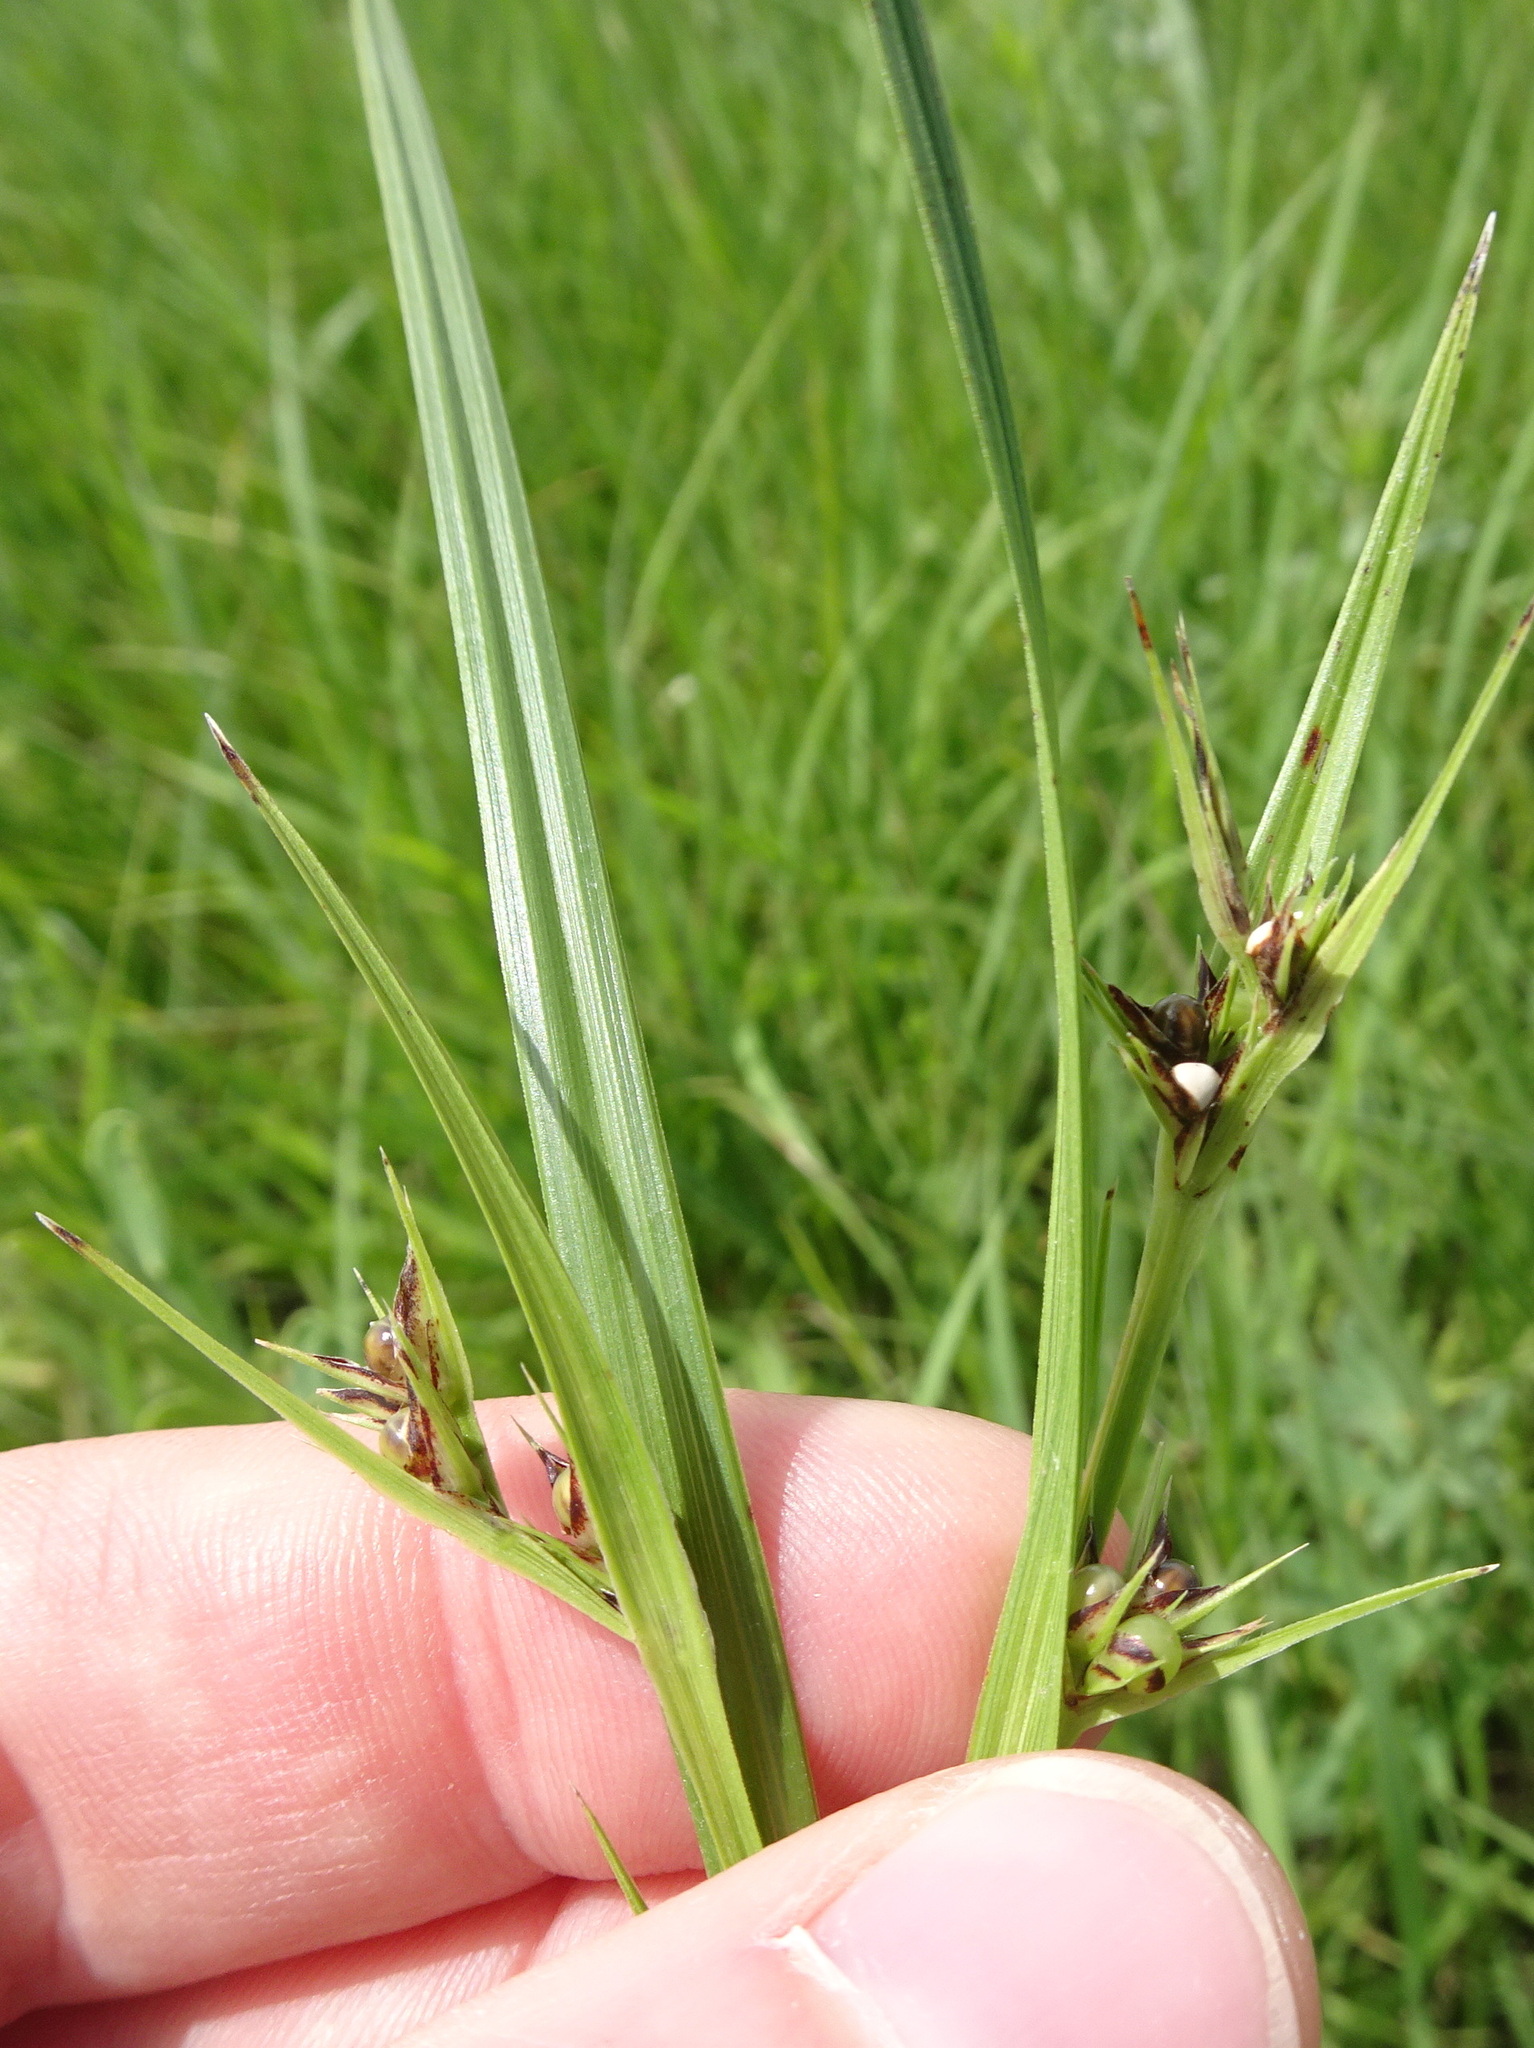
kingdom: Plantae
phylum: Tracheophyta
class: Liliopsida
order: Poales
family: Cyperaceae
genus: Scleria
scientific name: Scleria triglomerata
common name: Whip nutrush
